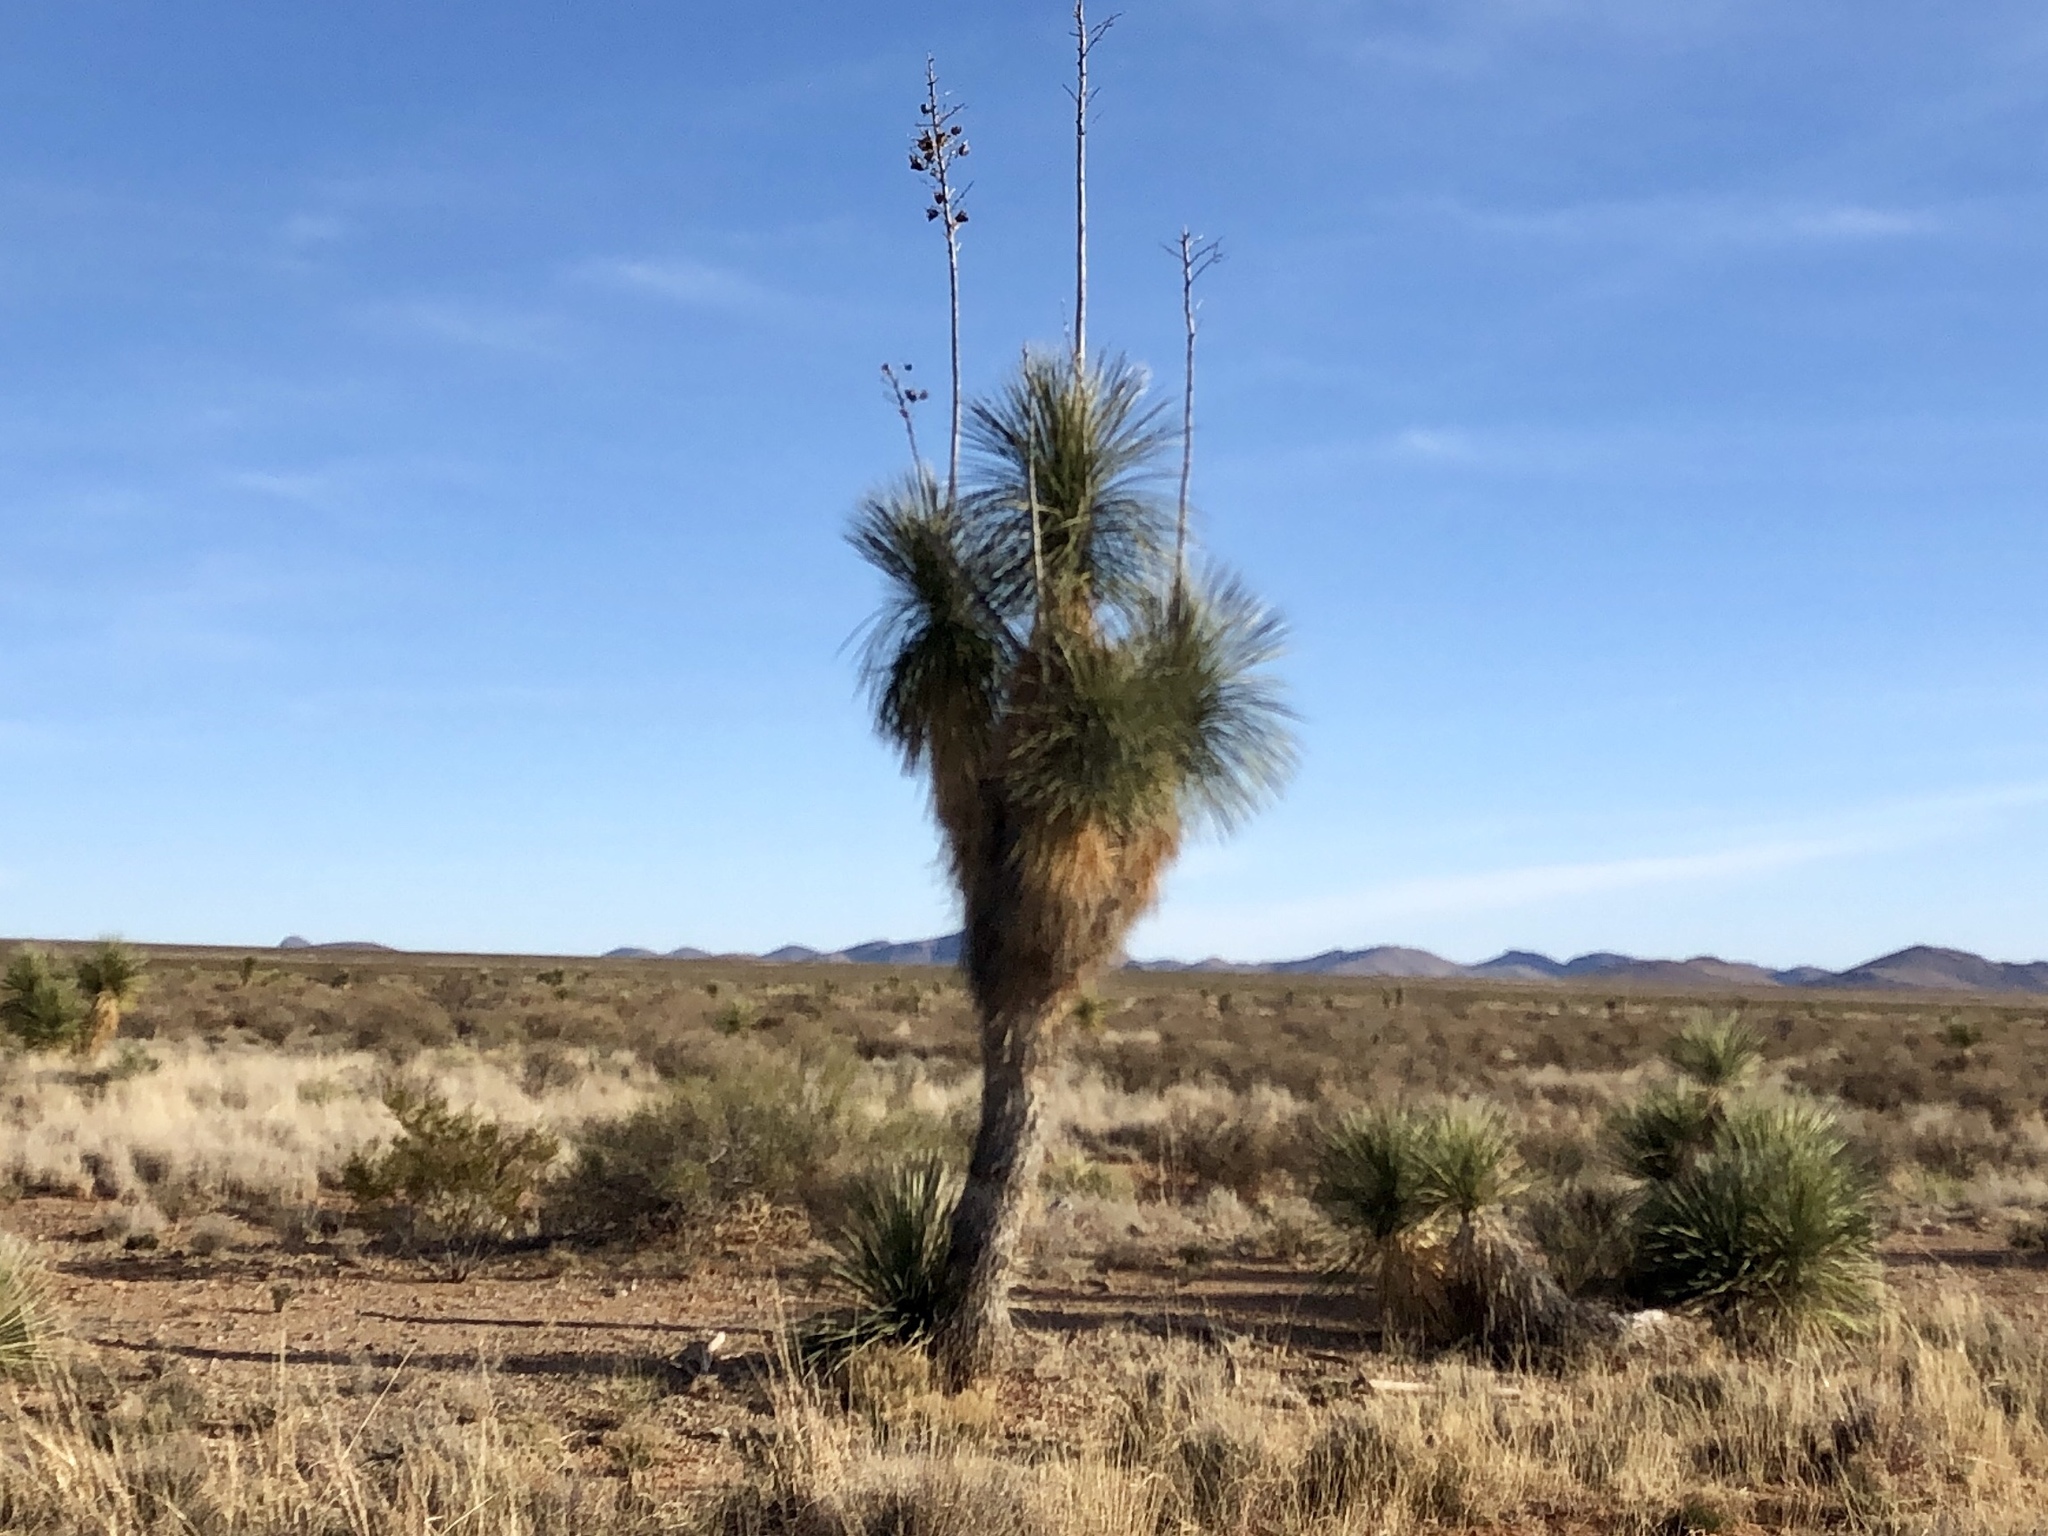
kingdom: Plantae
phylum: Tracheophyta
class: Liliopsida
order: Asparagales
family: Asparagaceae
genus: Yucca
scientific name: Yucca elata
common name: Palmella
